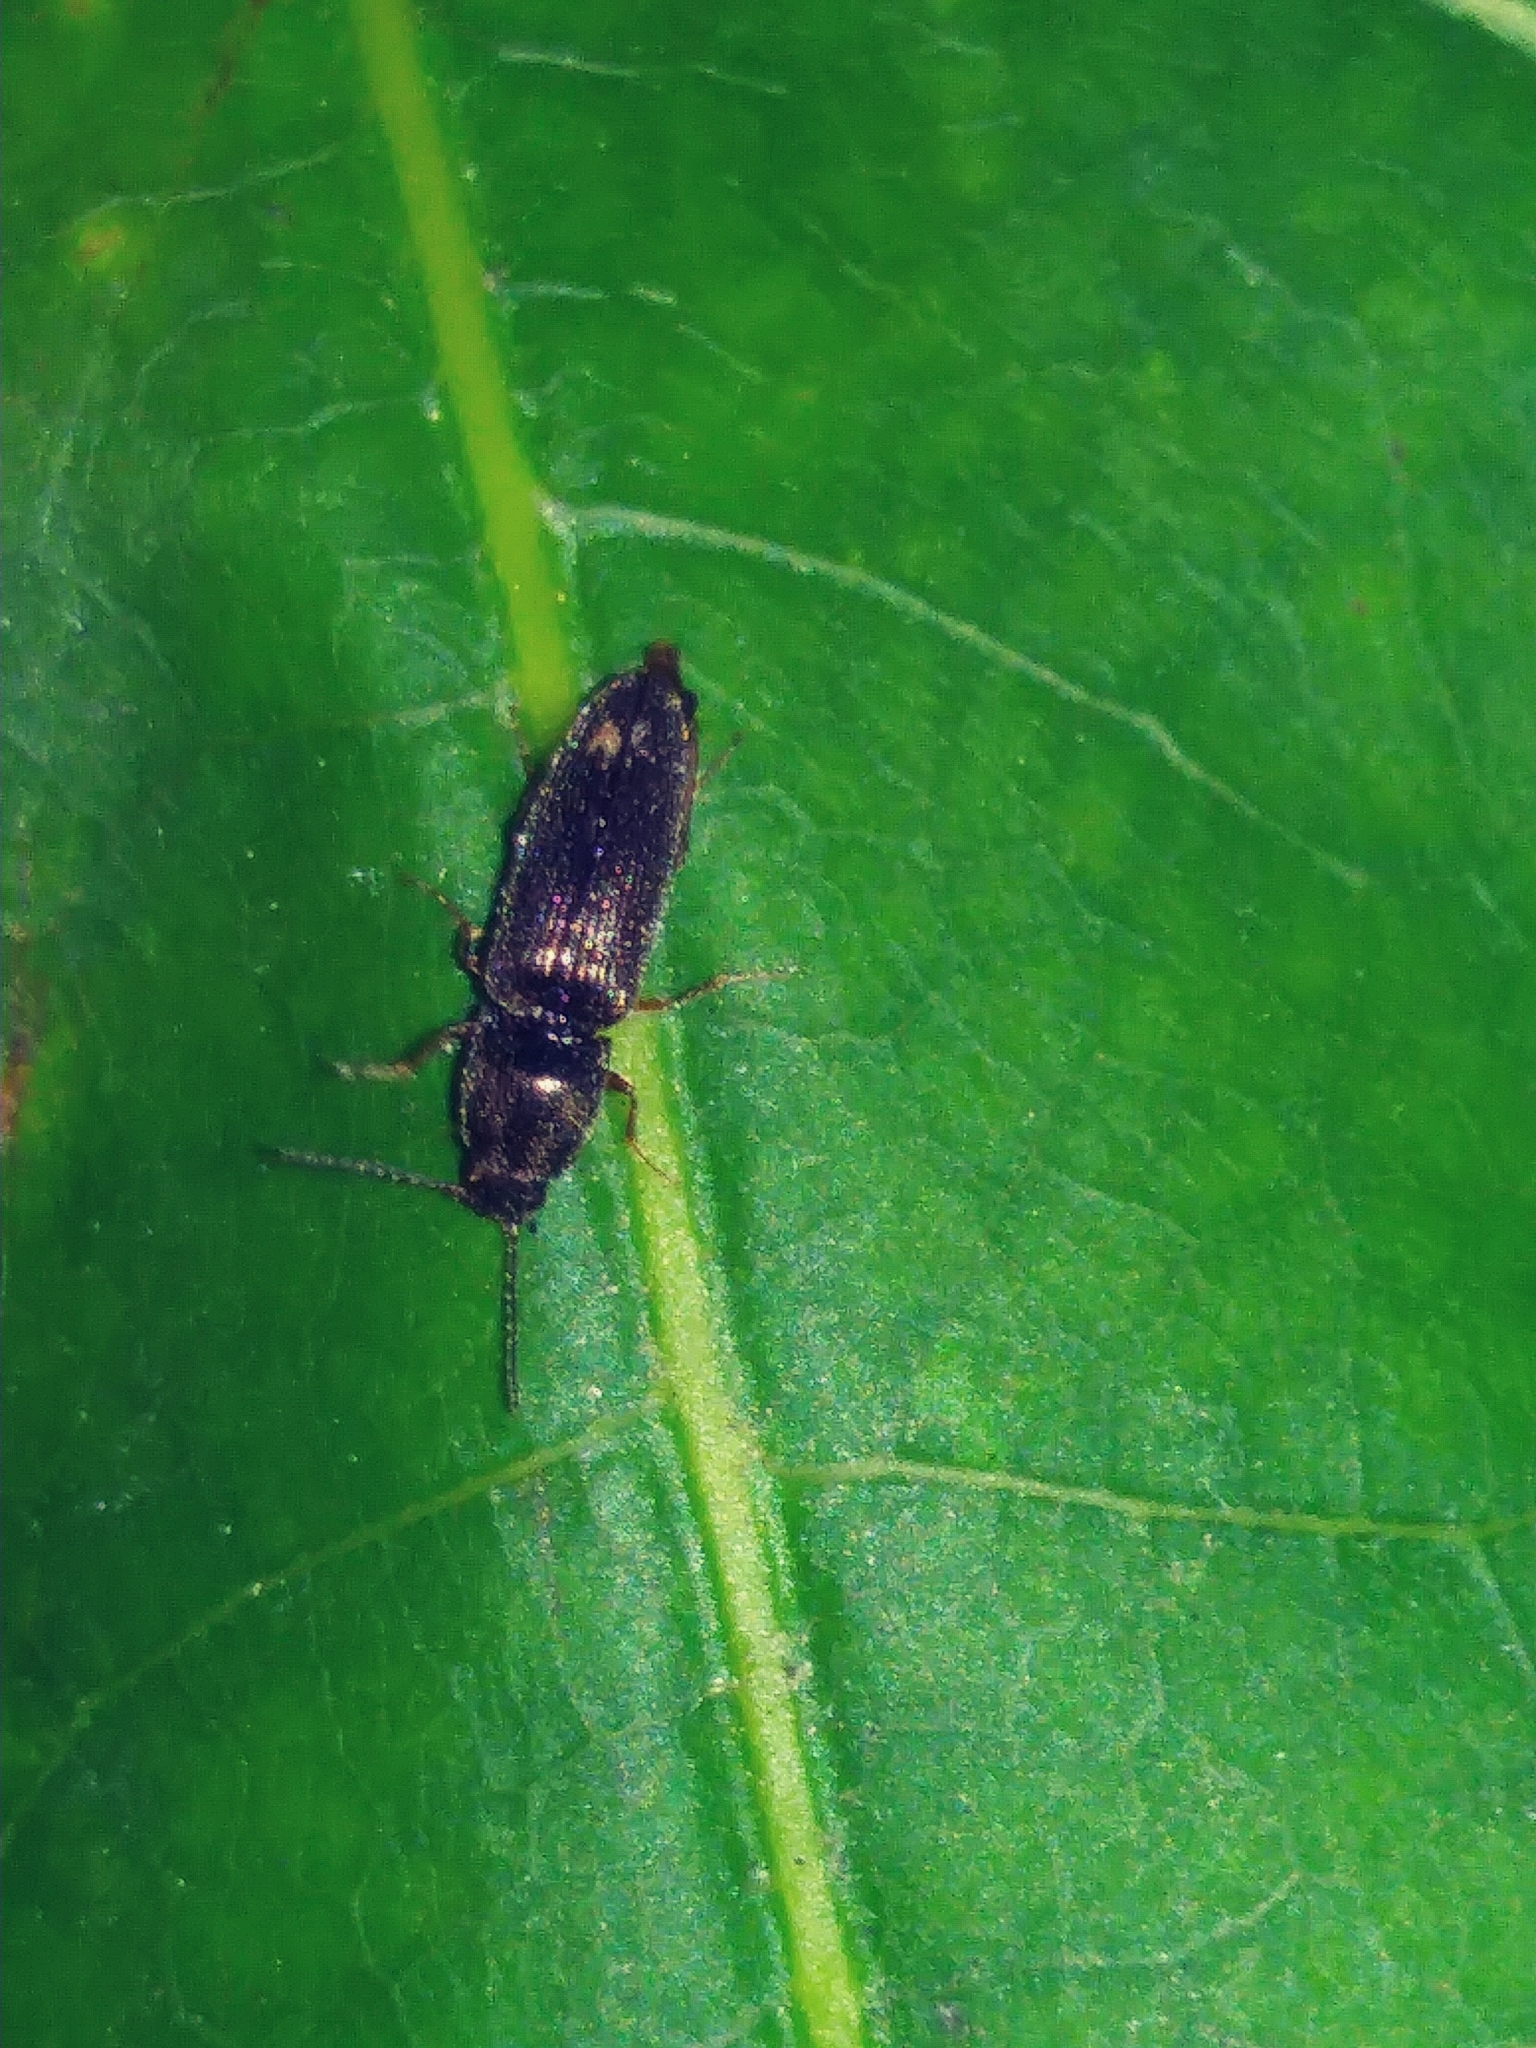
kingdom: Animalia
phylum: Arthropoda
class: Insecta
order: Coleoptera
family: Elateridae
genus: Limonius
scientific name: Limonius quercinus
